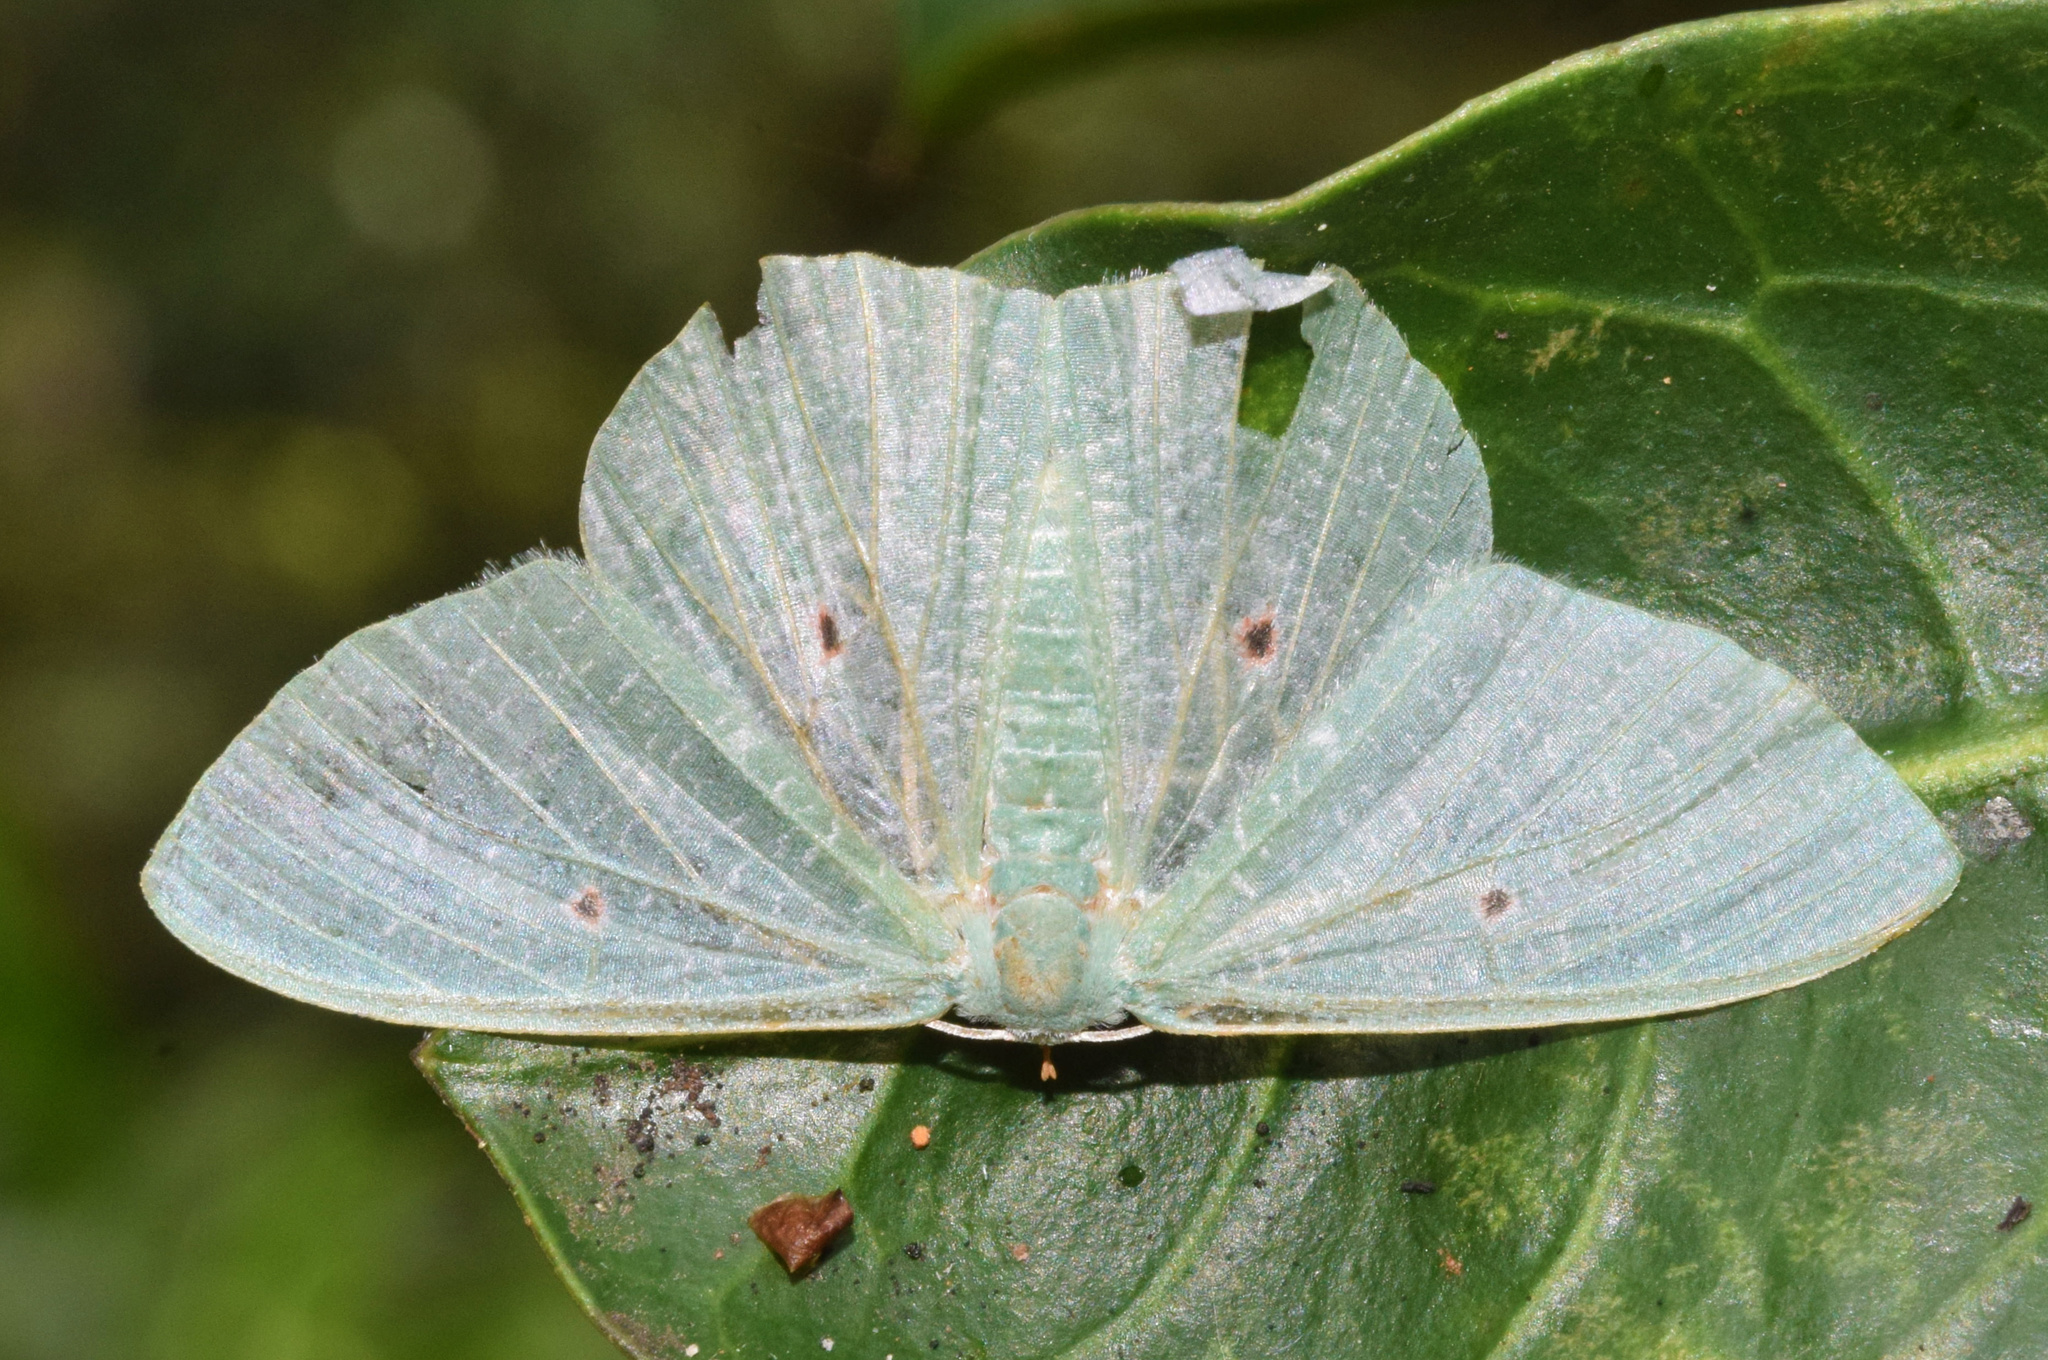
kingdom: Animalia
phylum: Arthropoda
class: Insecta
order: Lepidoptera
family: Geometridae
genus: Prasinocyma
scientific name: Prasinocyma oculata
